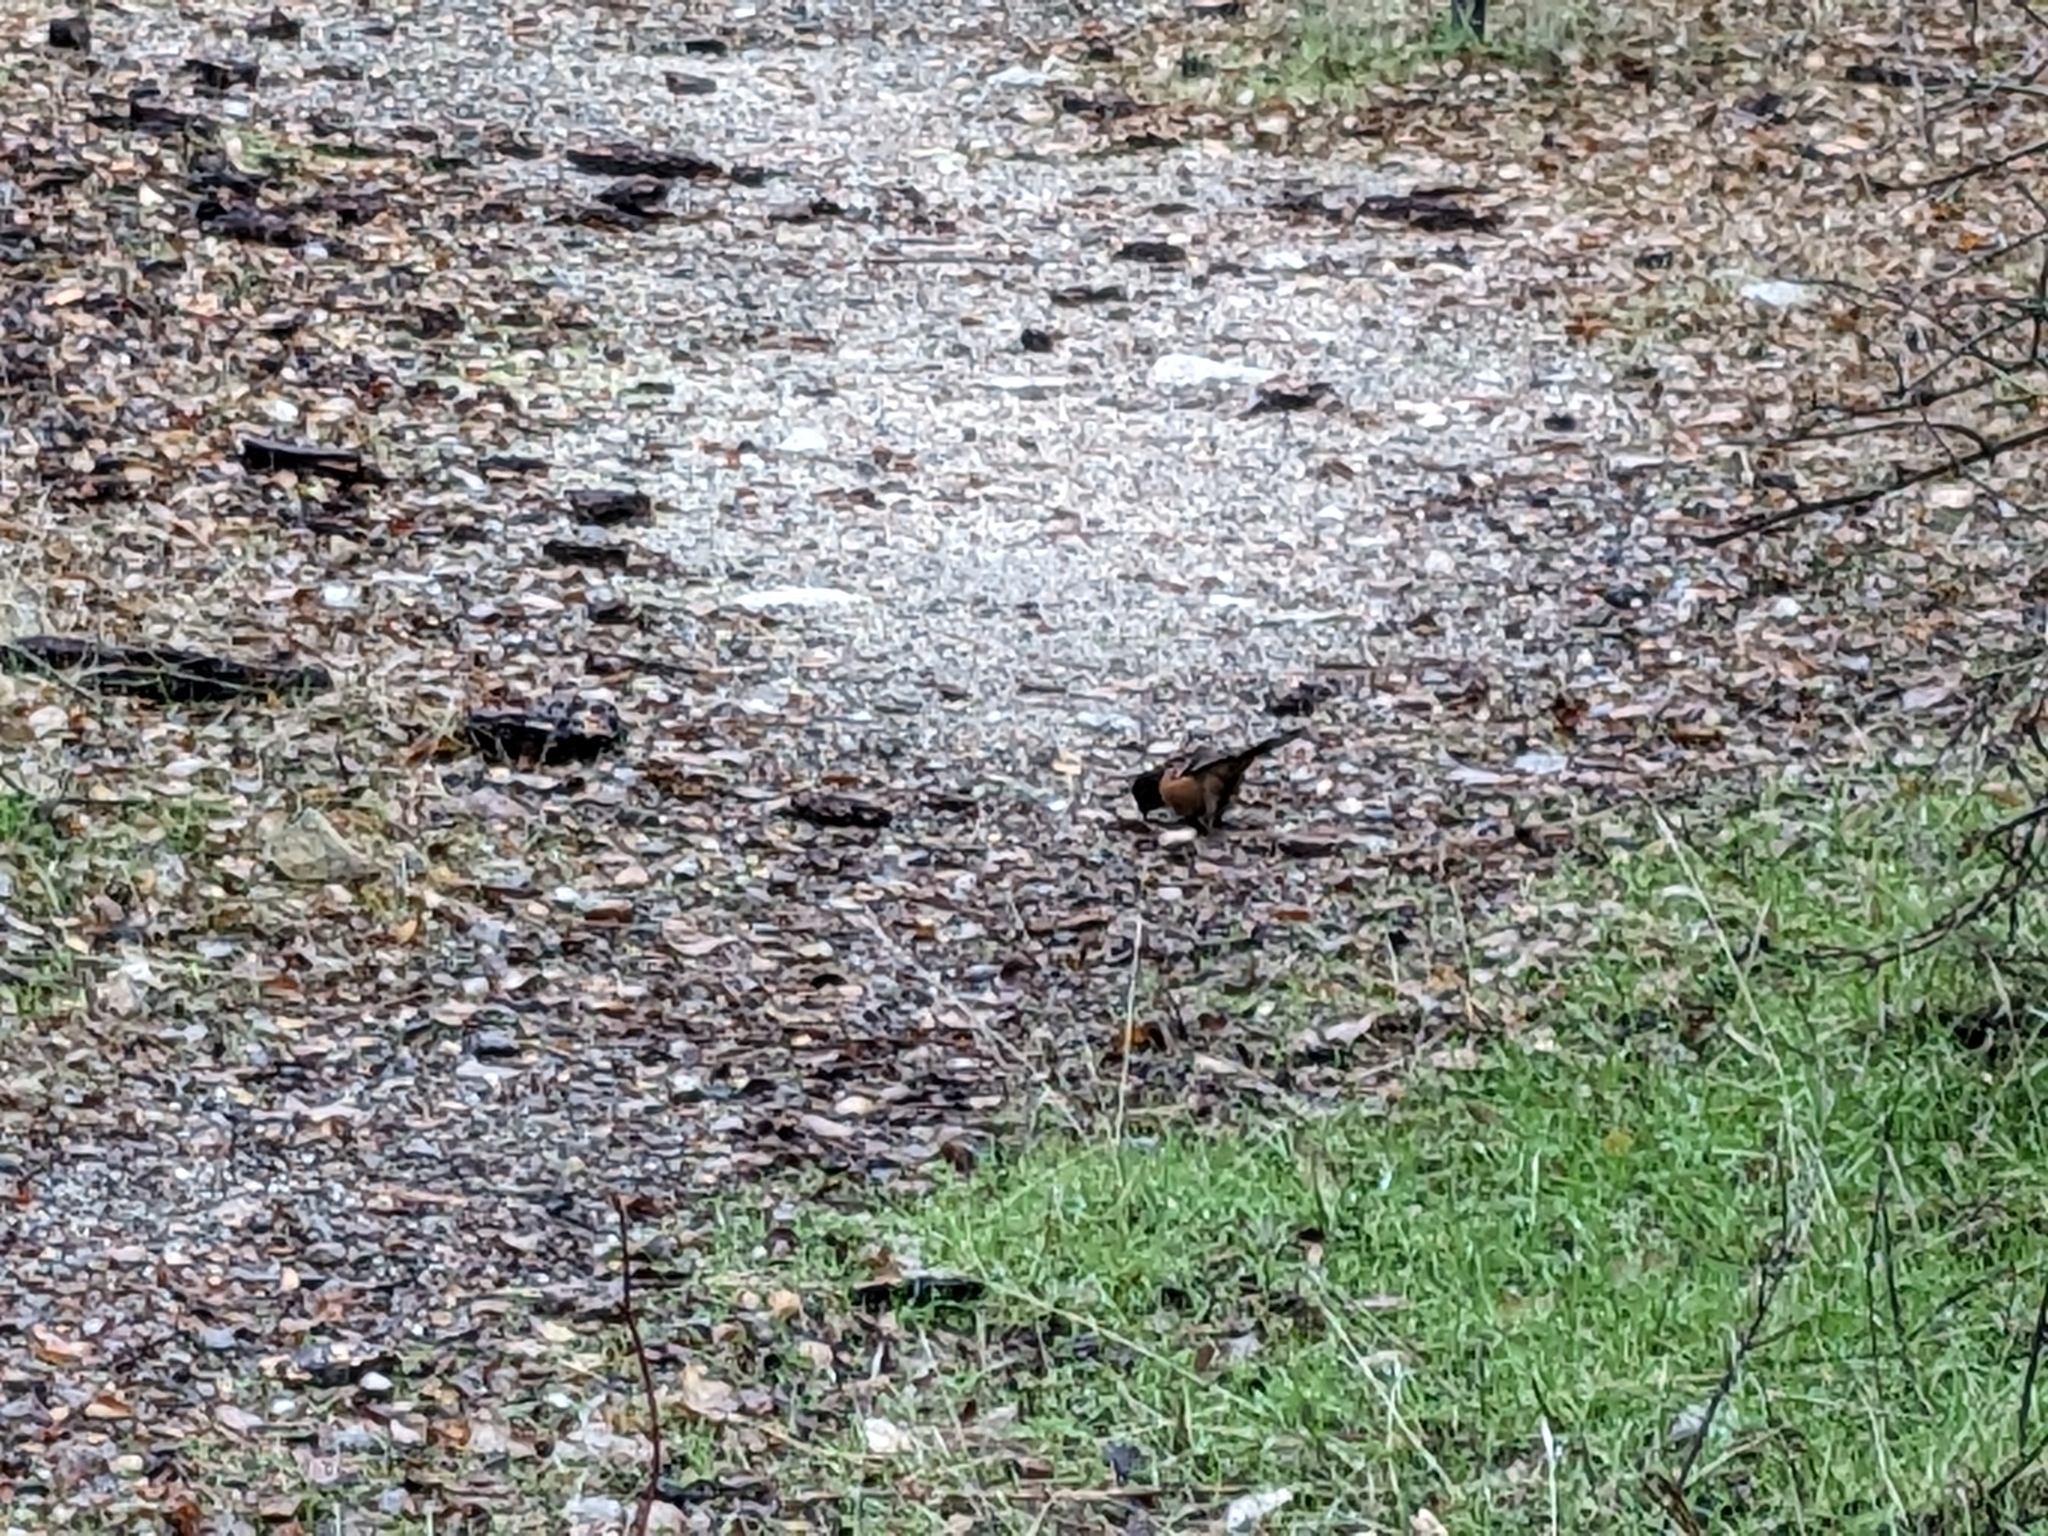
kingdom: Animalia
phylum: Chordata
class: Aves
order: Passeriformes
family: Passerellidae
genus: Pipilo
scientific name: Pipilo maculatus
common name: Spotted towhee
